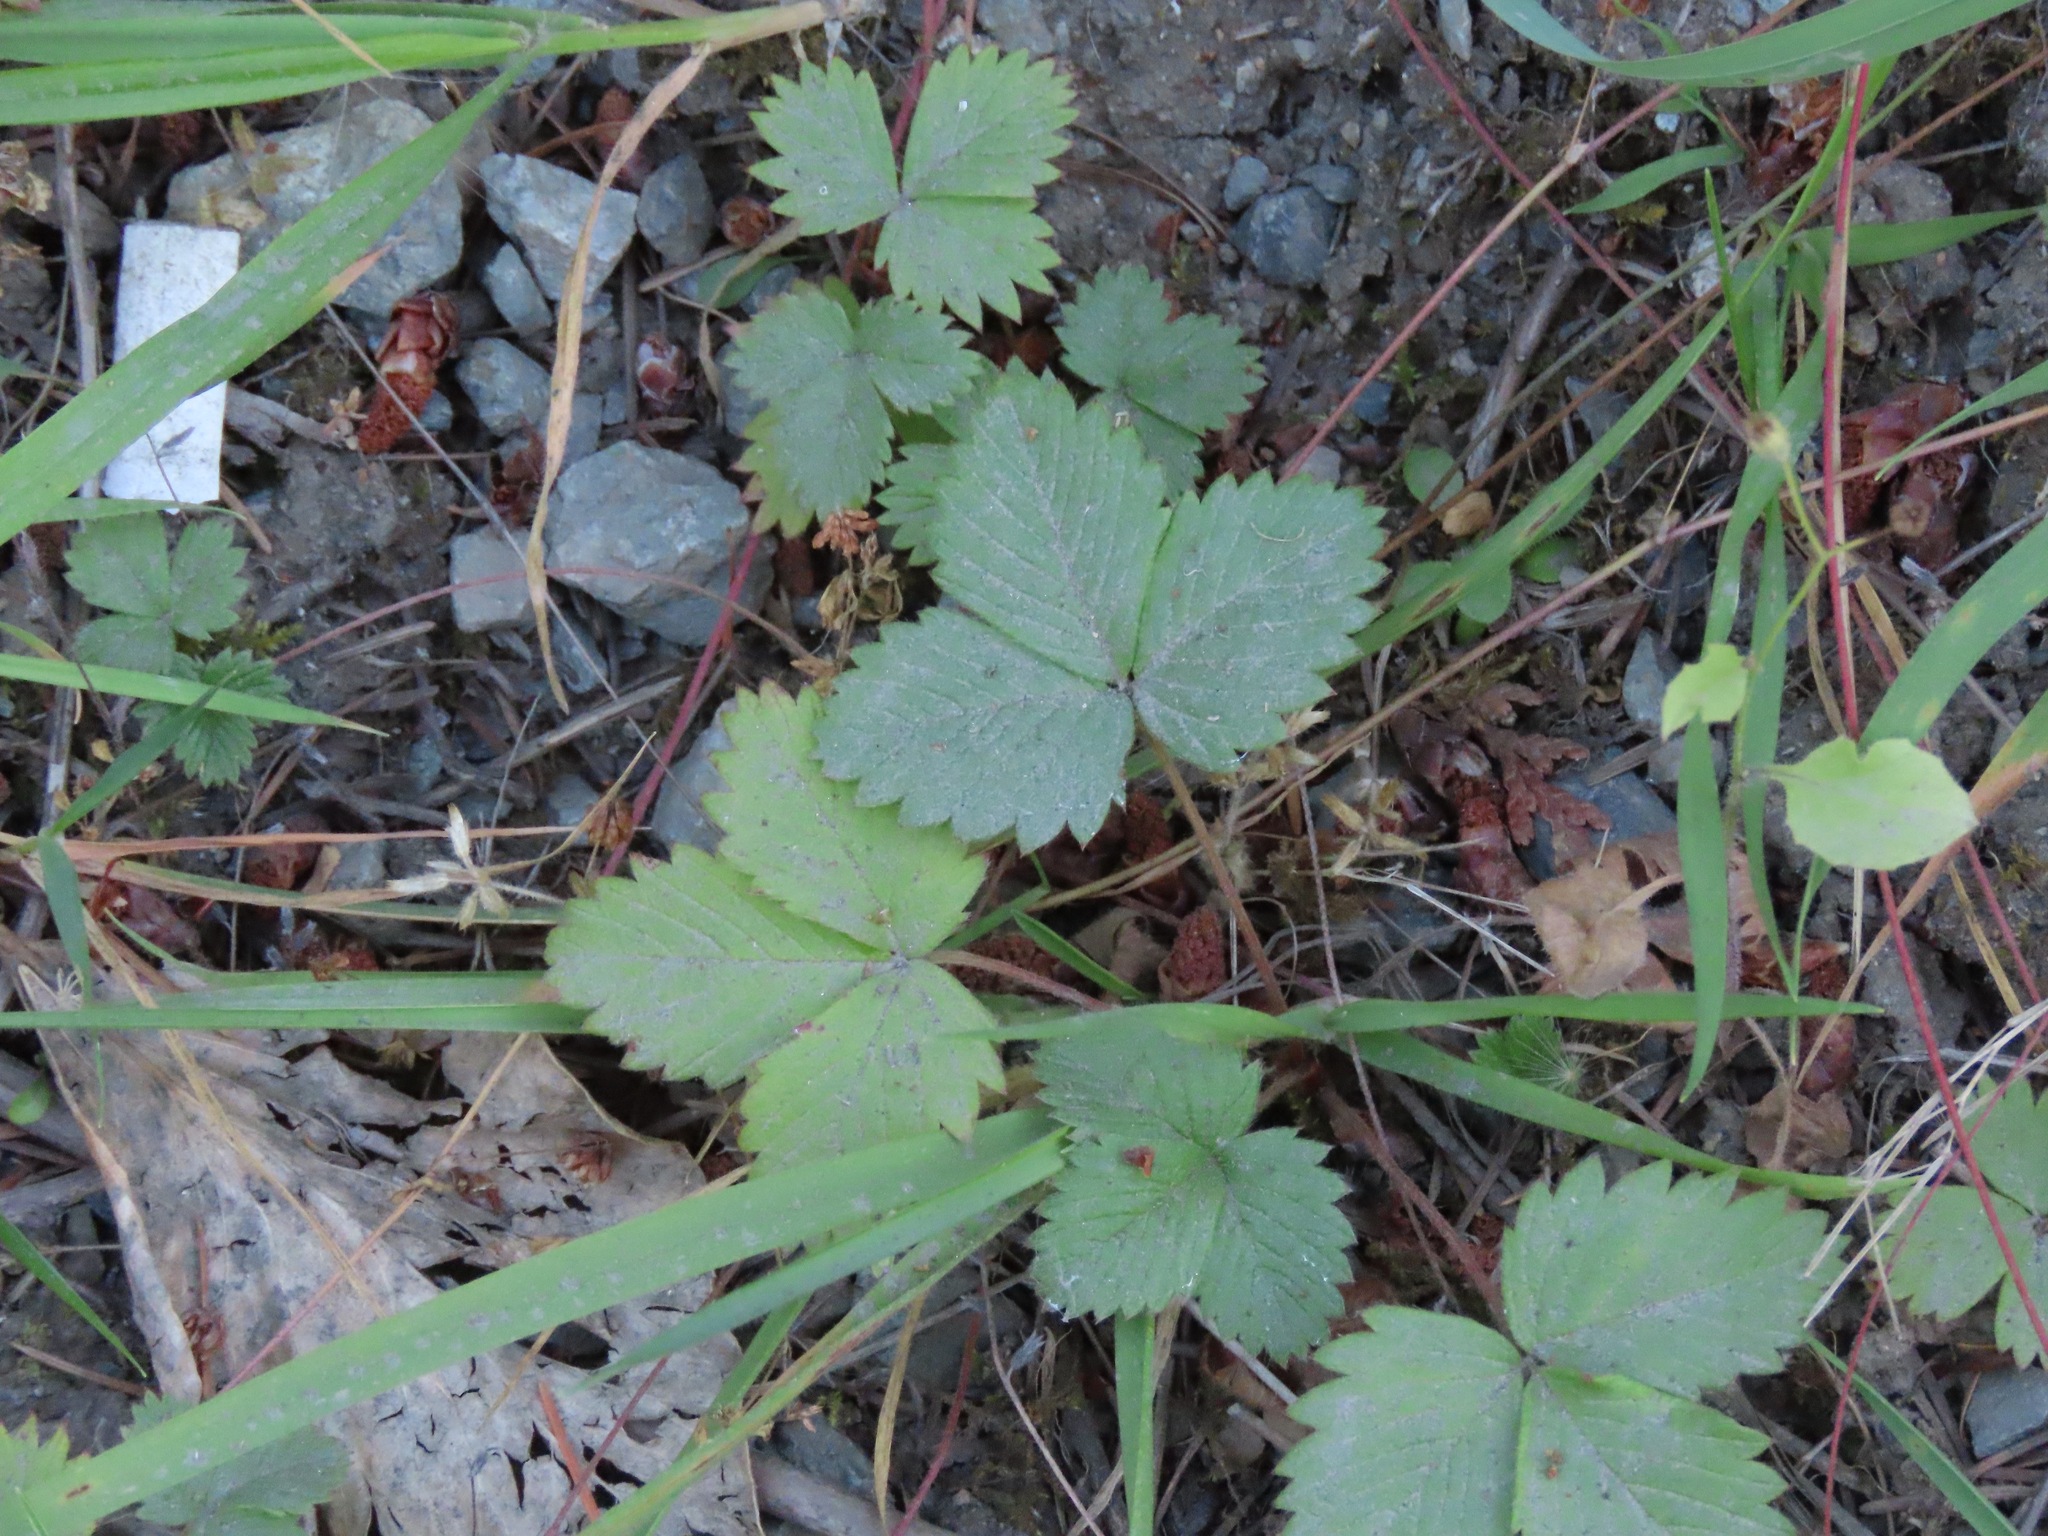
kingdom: Plantae
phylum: Tracheophyta
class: Magnoliopsida
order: Rosales
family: Rosaceae
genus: Fragaria
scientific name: Fragaria vesca
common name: Wild strawberry
